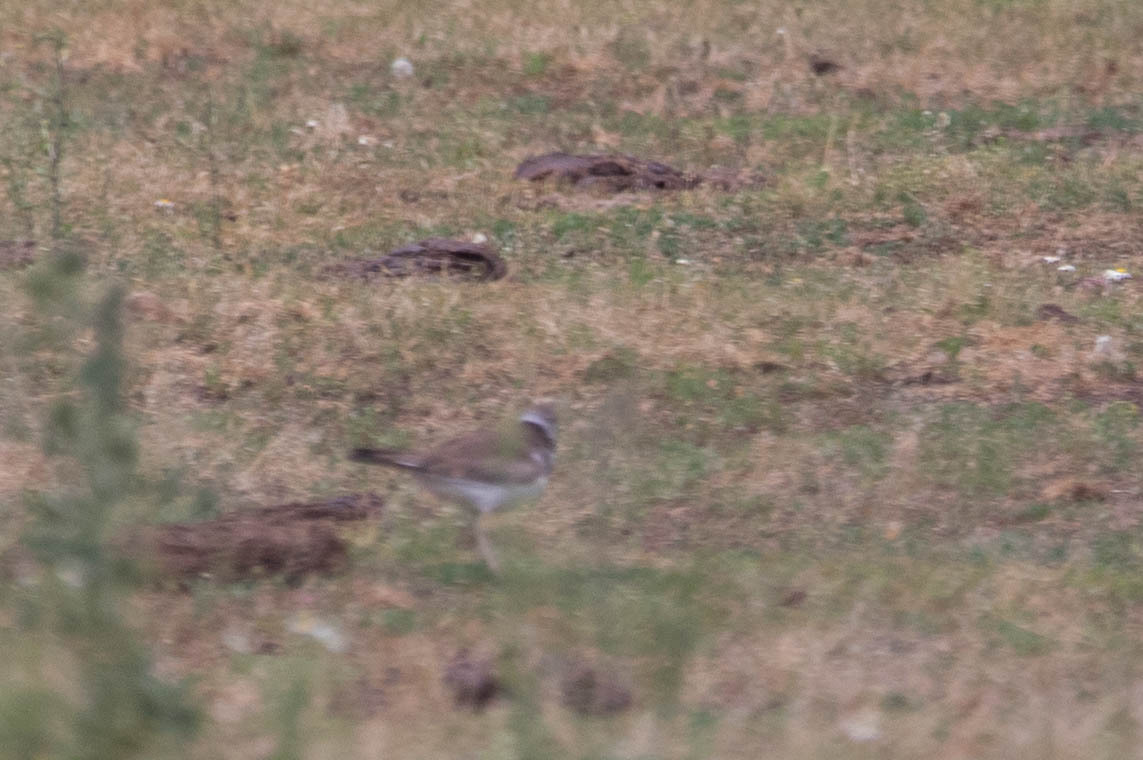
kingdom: Animalia
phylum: Chordata
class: Aves
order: Charadriiformes
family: Charadriidae
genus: Charadrius
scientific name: Charadrius vociferus
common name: Killdeer
